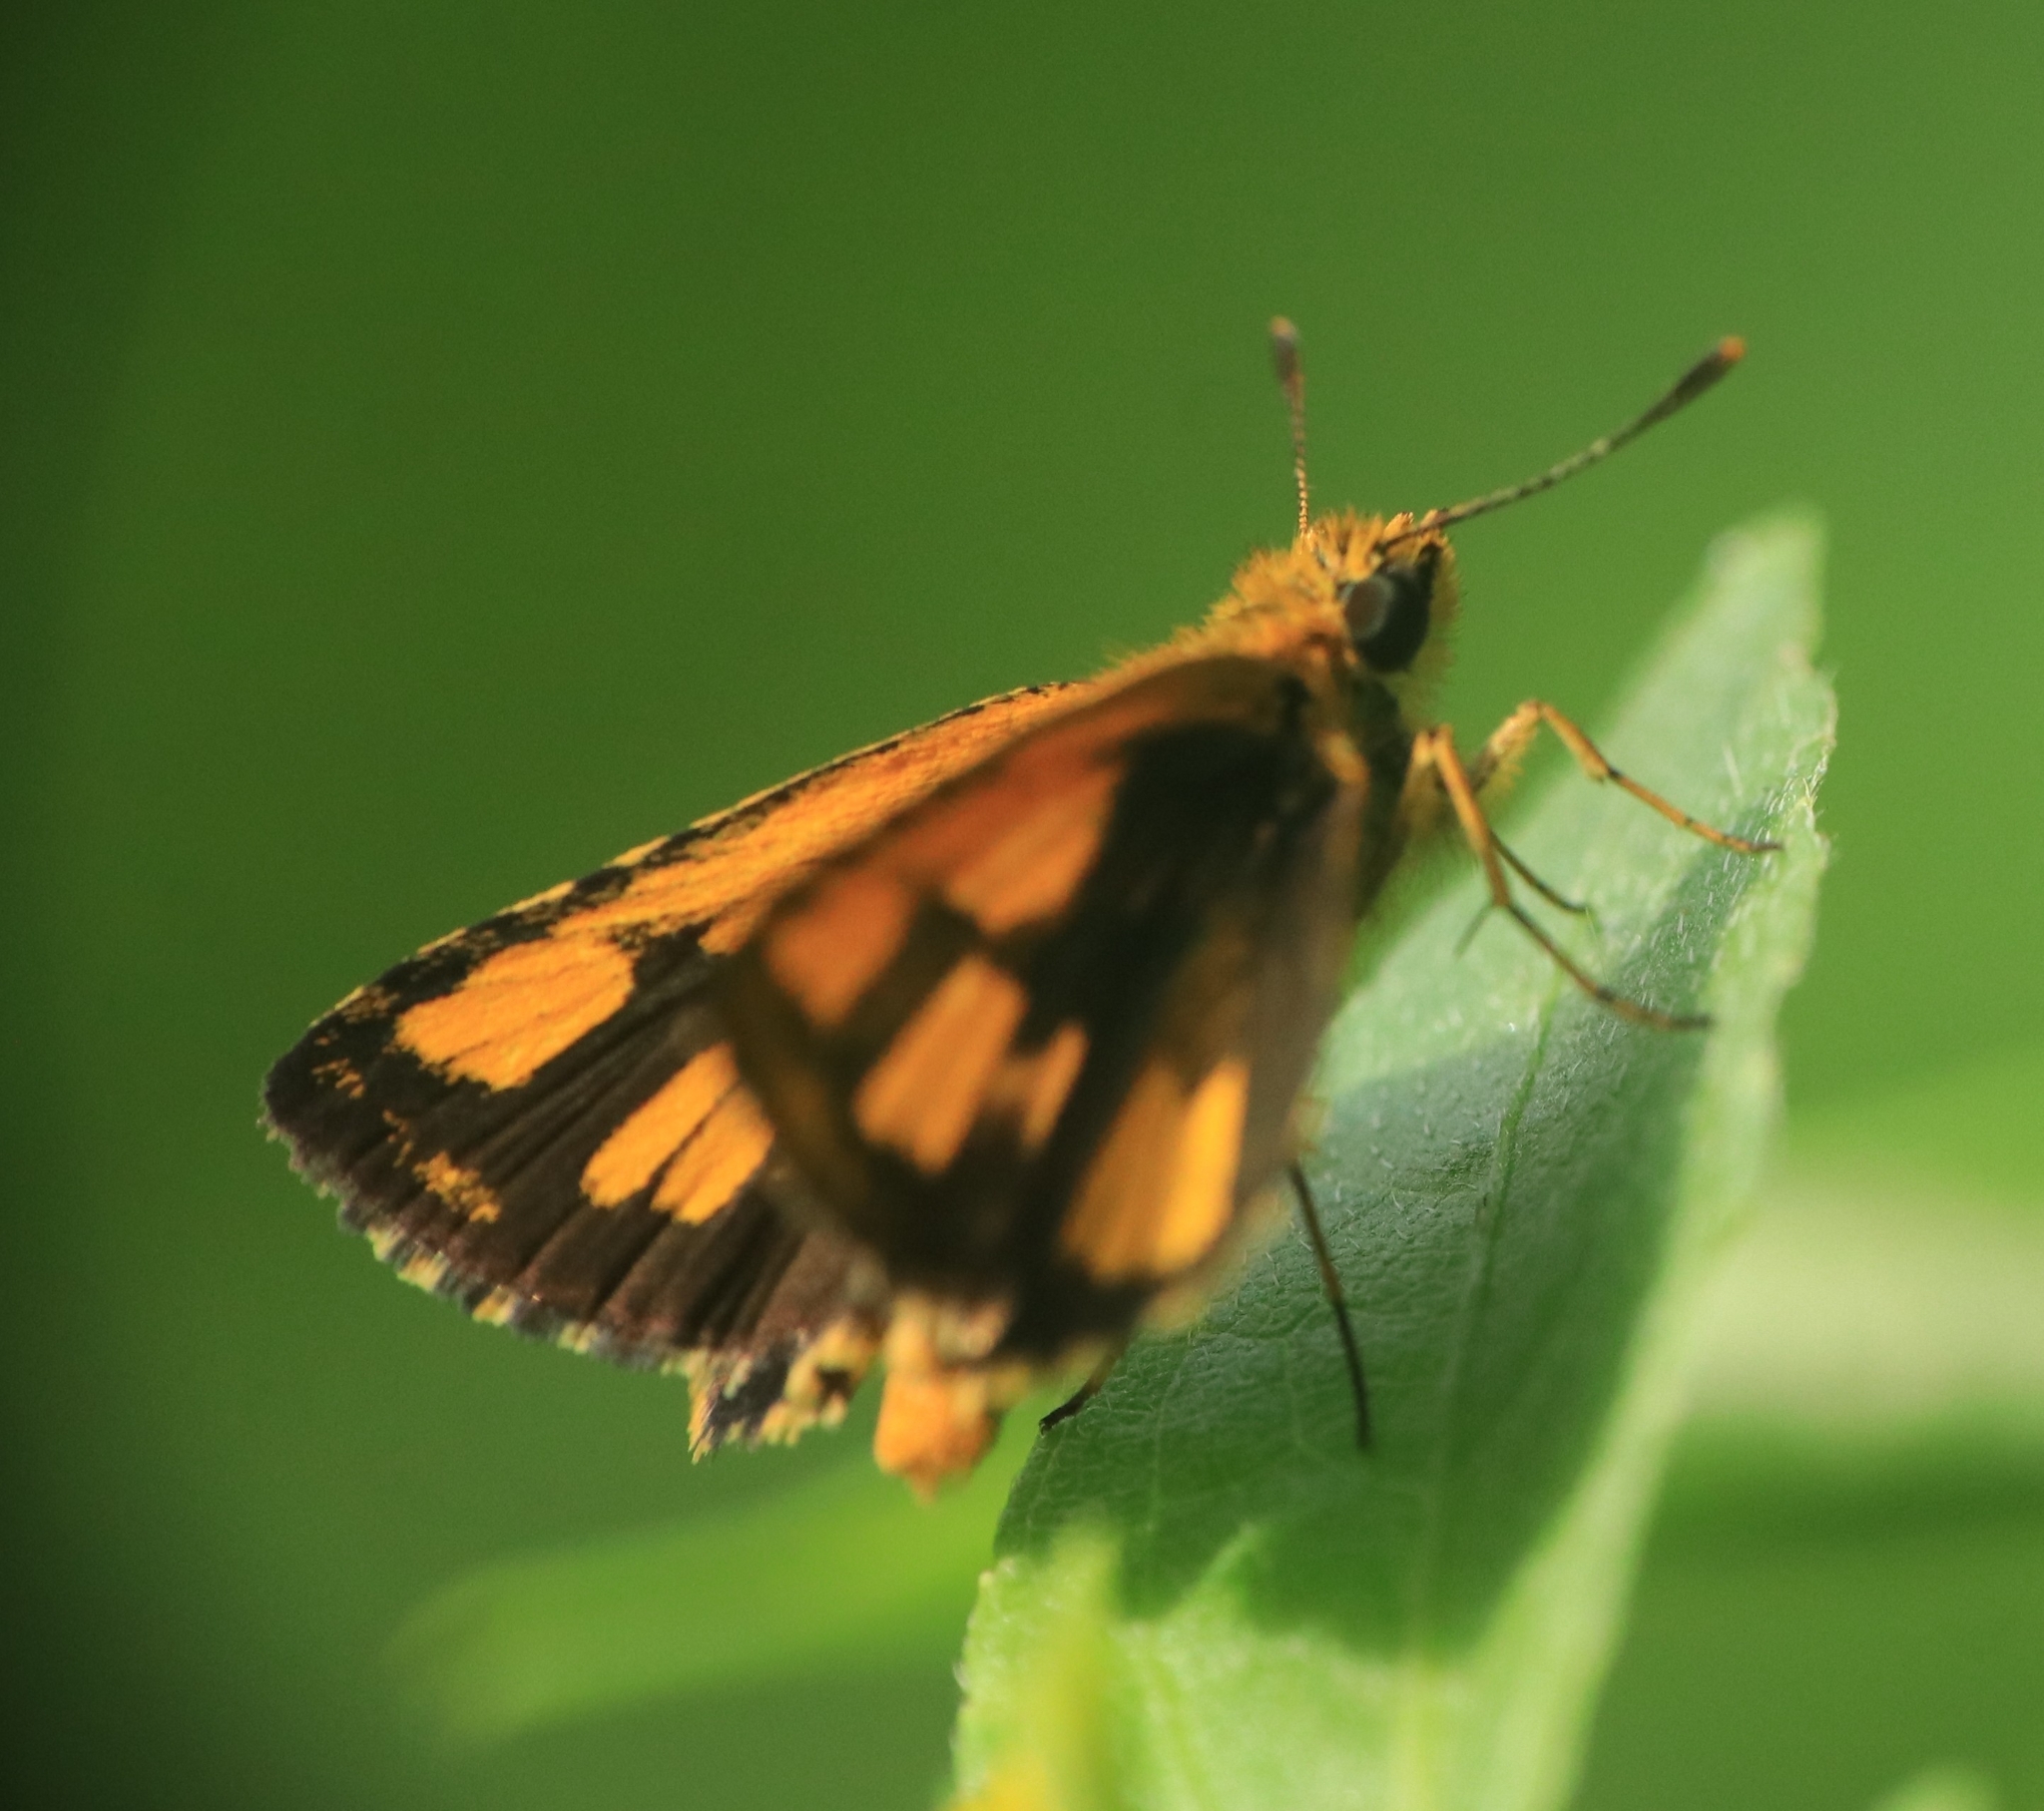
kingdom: Animalia
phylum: Arthropoda
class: Insecta
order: Lepidoptera
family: Hesperiidae
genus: Ampittia
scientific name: Ampittia dioscorides
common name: Common bush hopper
